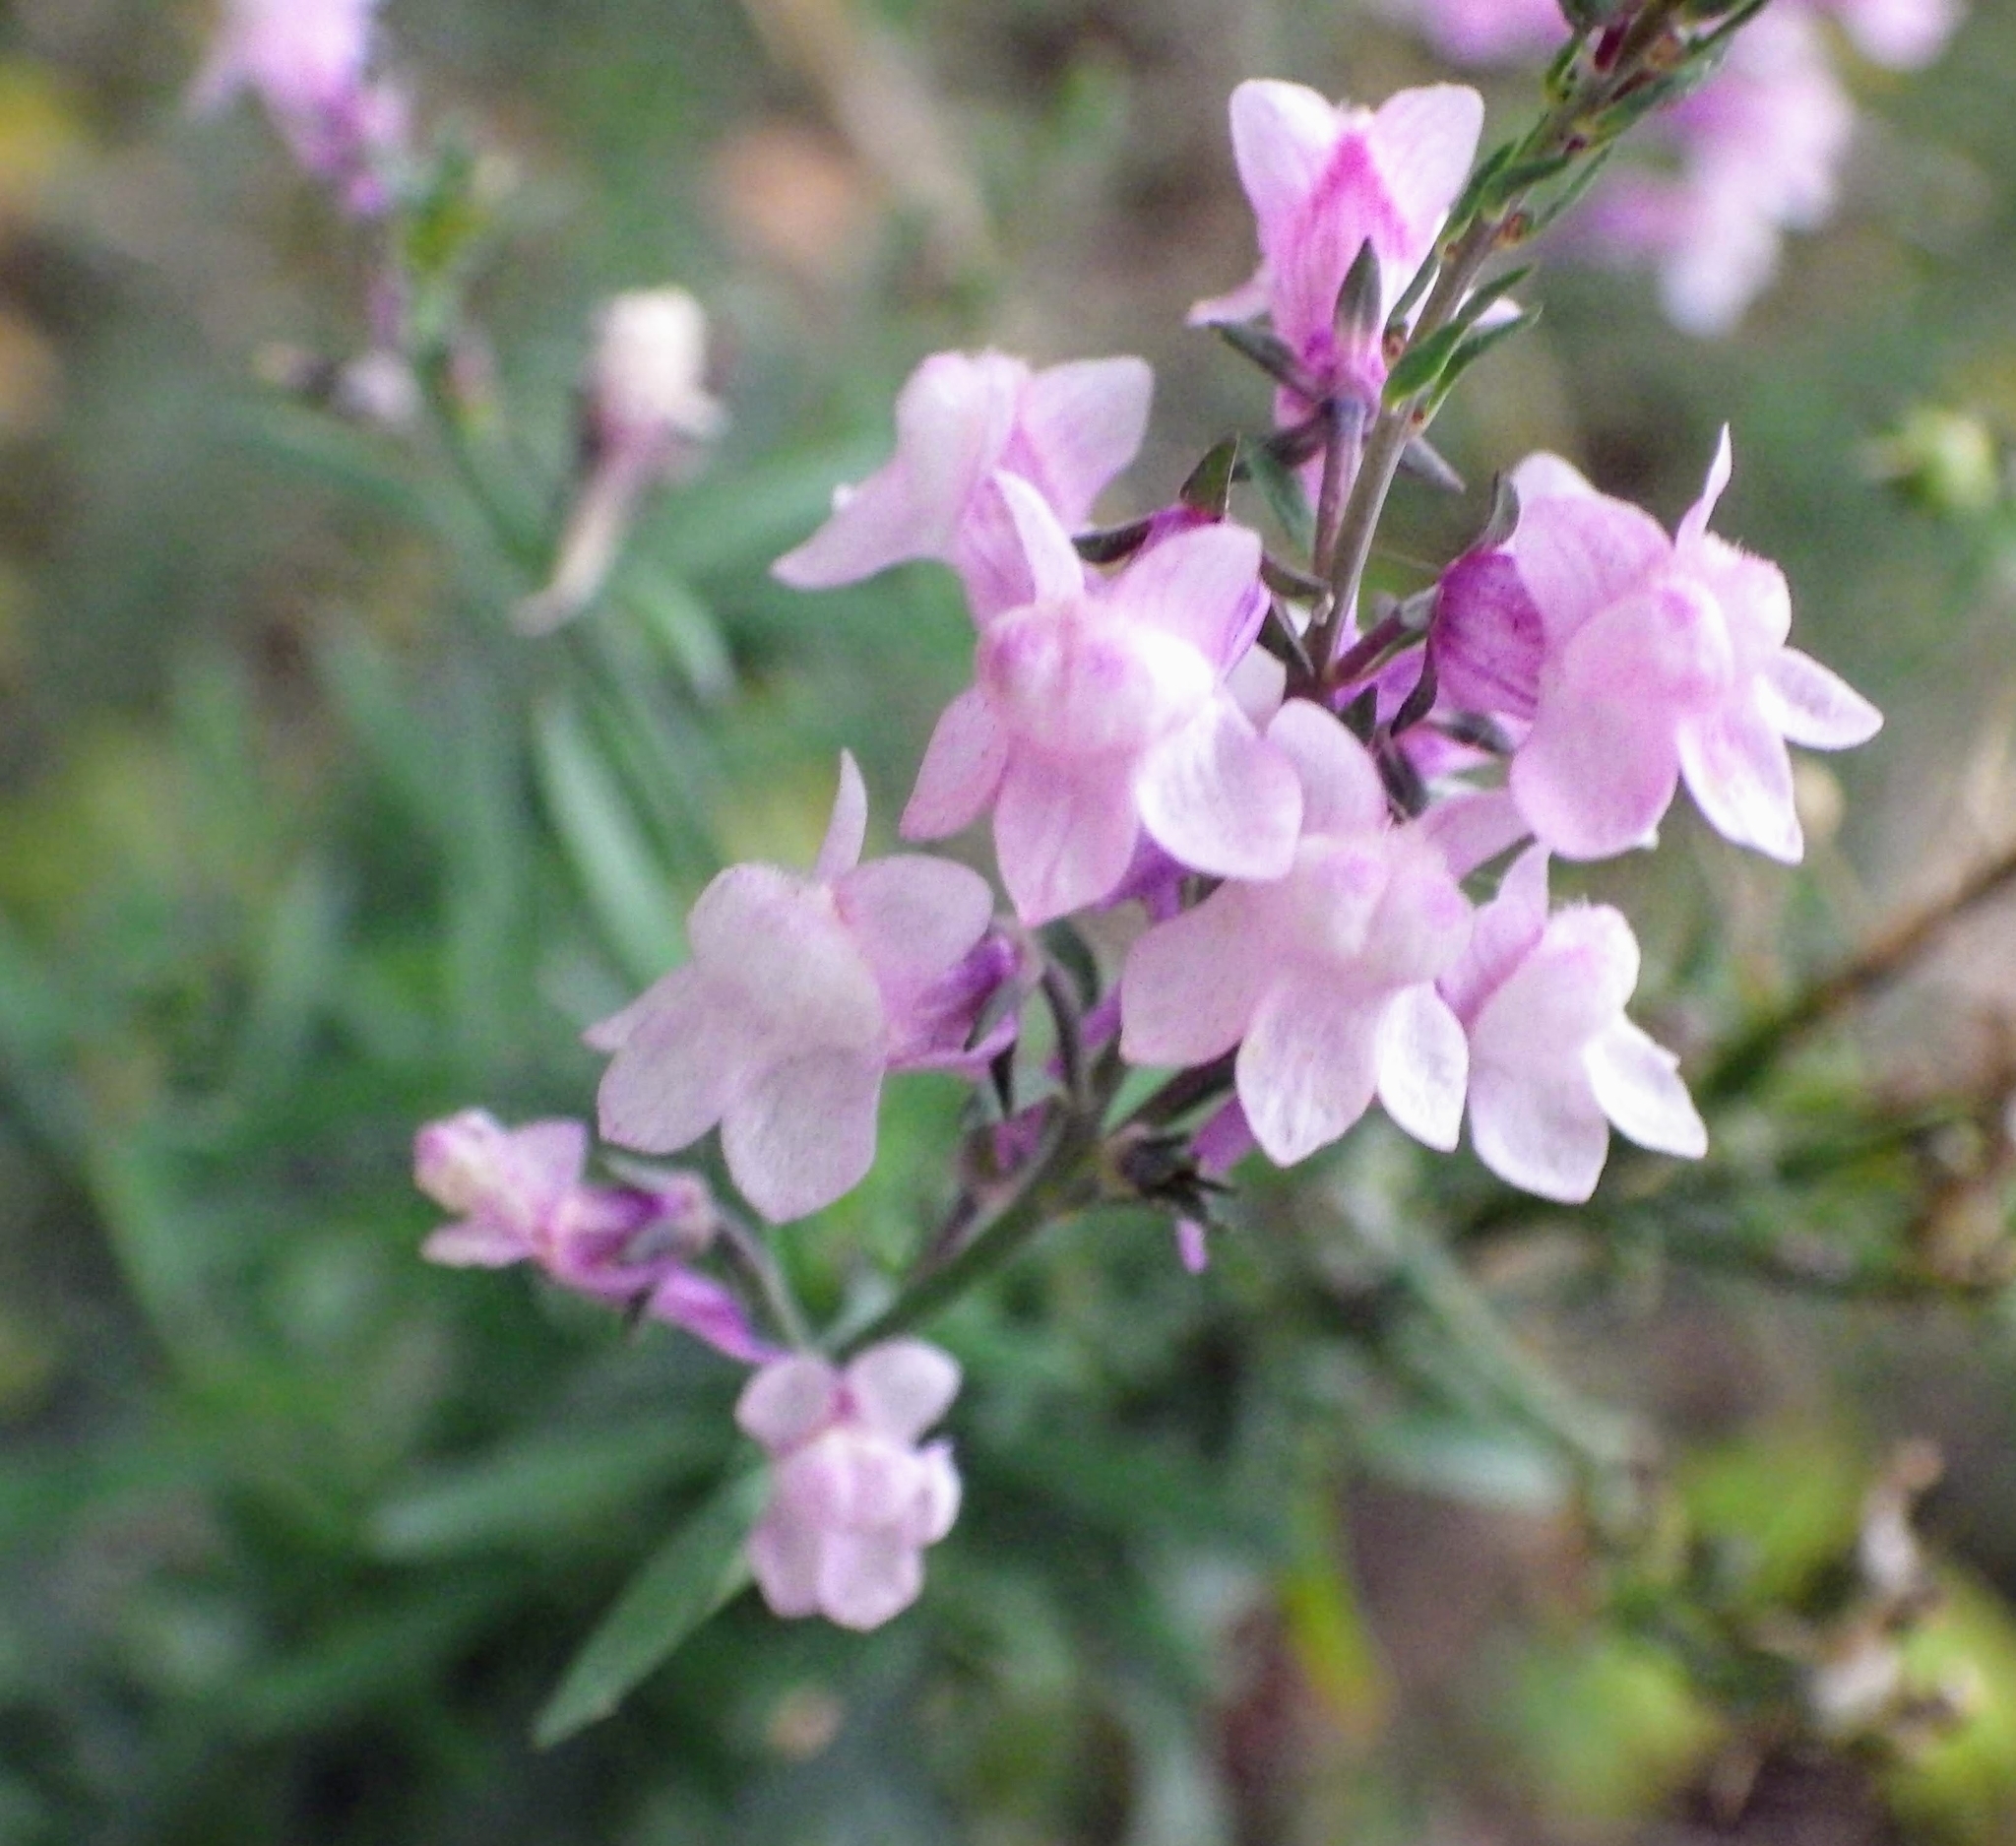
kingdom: Plantae
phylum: Tracheophyta
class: Magnoliopsida
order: Lamiales
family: Plantaginaceae
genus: Linaria
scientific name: Linaria purpurea
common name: Purple toadflax
